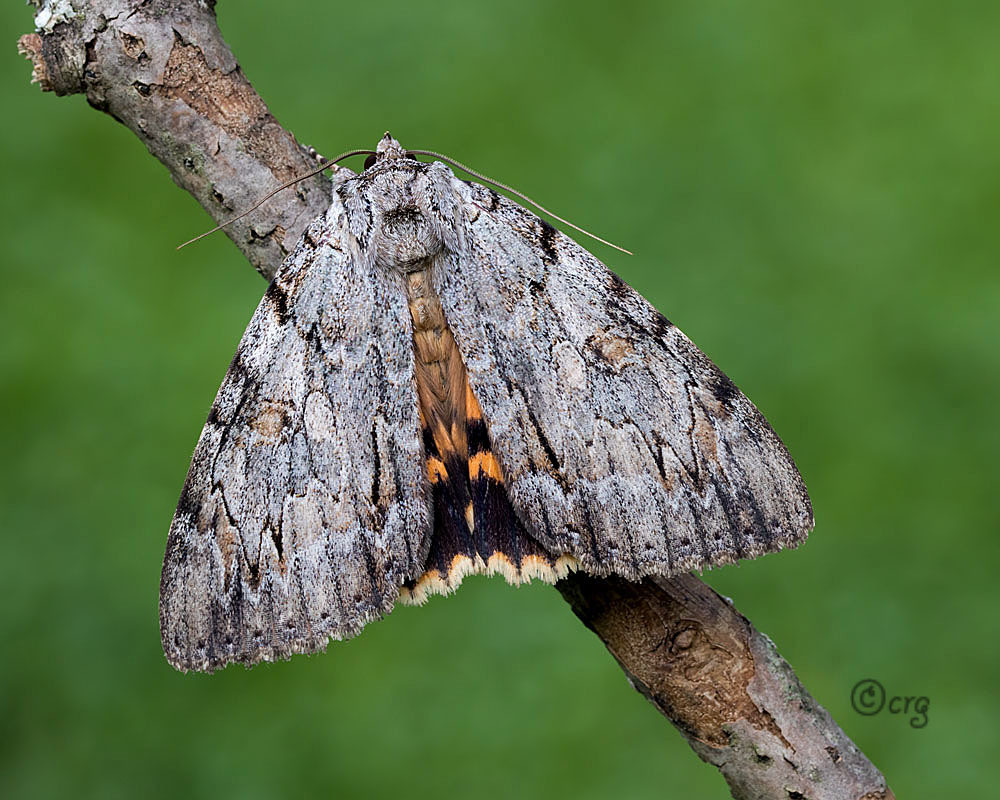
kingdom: Animalia
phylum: Arthropoda
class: Insecta
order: Lepidoptera
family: Erebidae
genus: Catocala
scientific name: Catocala subnata
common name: Youthful underwing
